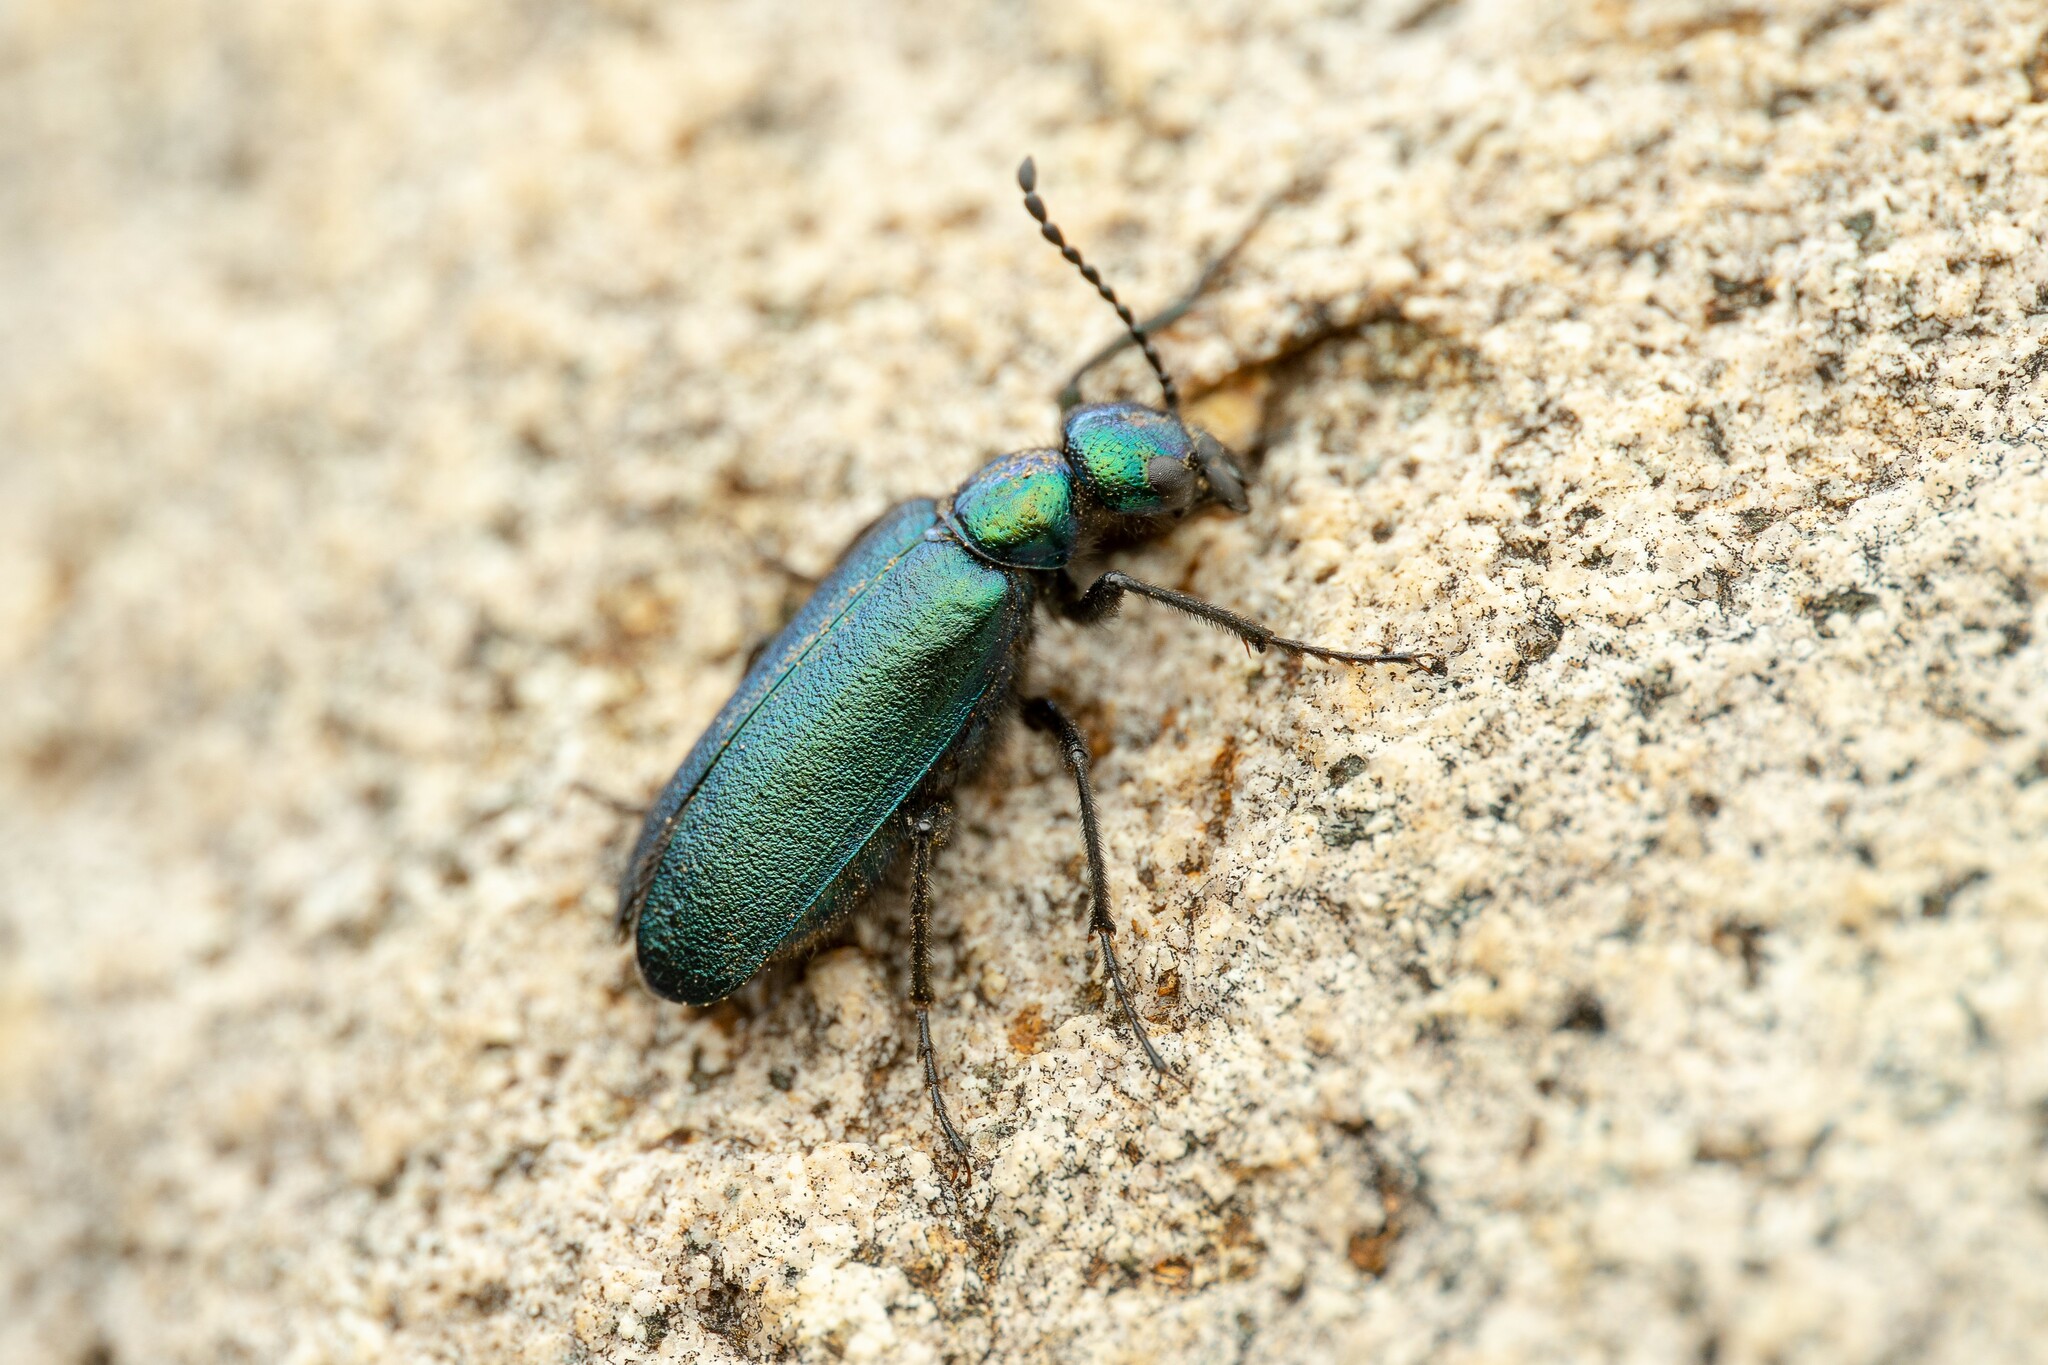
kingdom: Animalia
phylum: Arthropoda
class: Insecta
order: Coleoptera
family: Meloidae
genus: Lytta
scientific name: Lytta stygica
